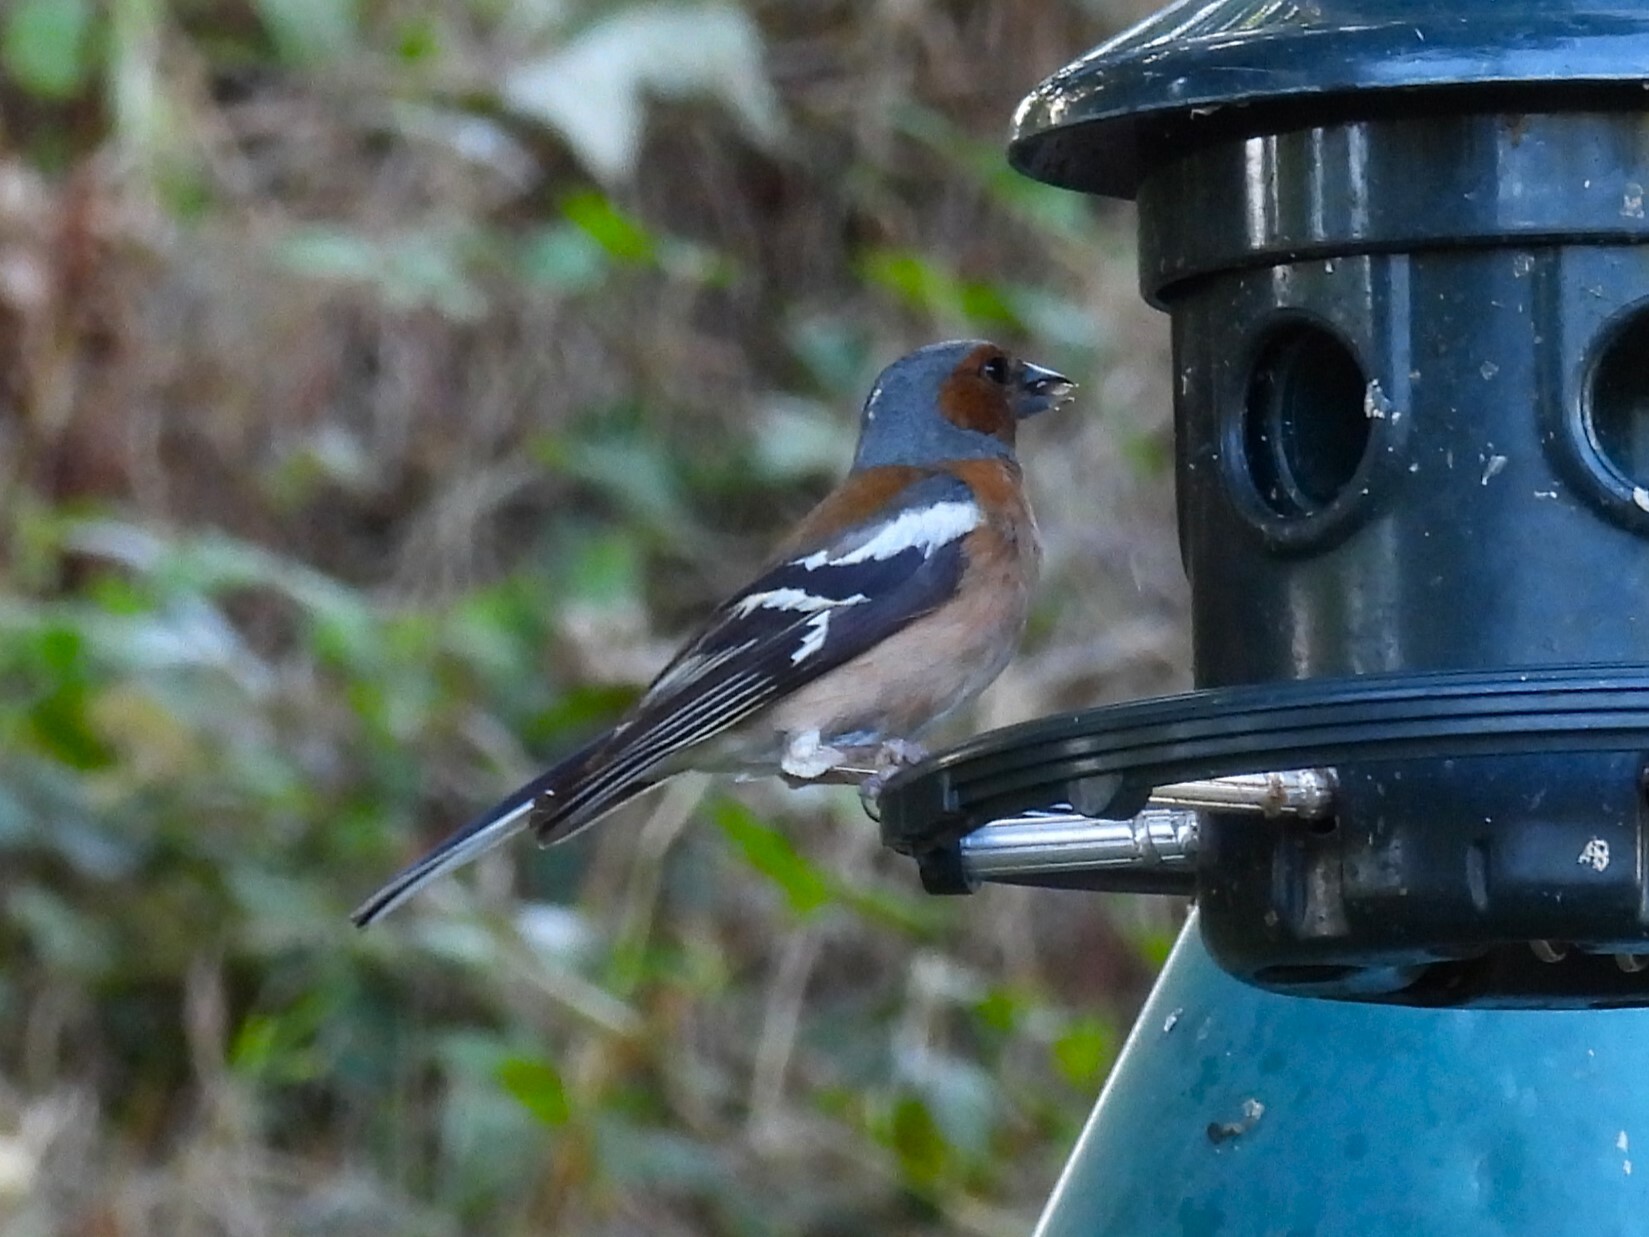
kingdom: Animalia
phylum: Chordata
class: Aves
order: Passeriformes
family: Fringillidae
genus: Fringilla
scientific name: Fringilla coelebs
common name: Common chaffinch
